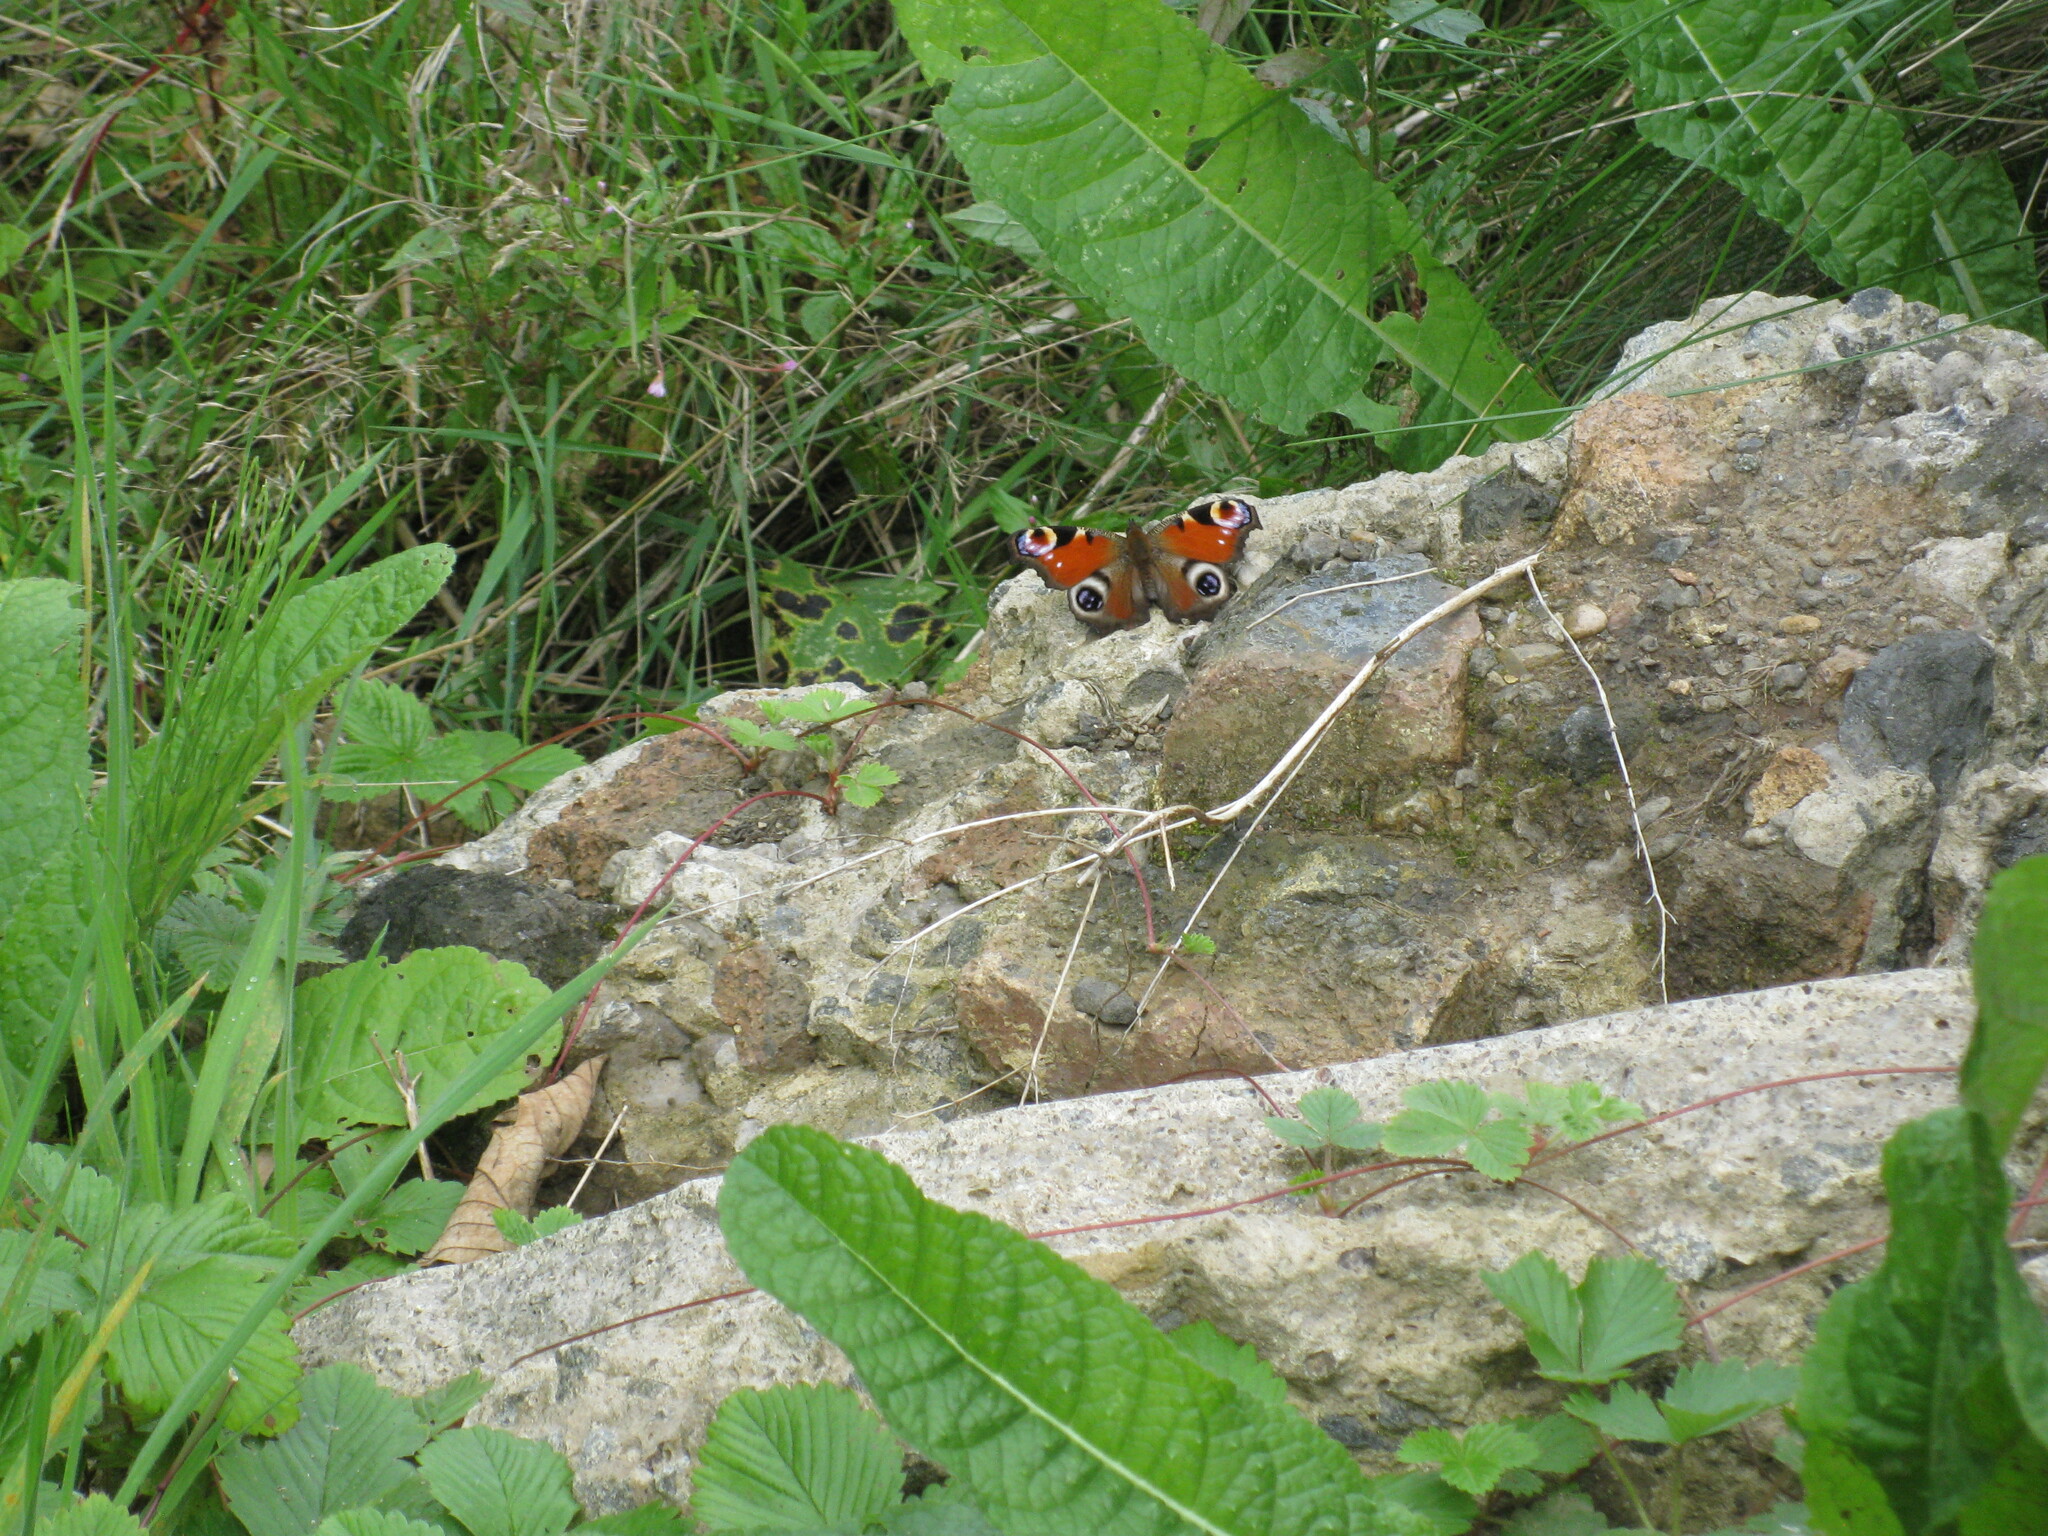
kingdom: Animalia
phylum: Arthropoda
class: Insecta
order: Lepidoptera
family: Nymphalidae
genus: Aglais
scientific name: Aglais io
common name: Peacock
